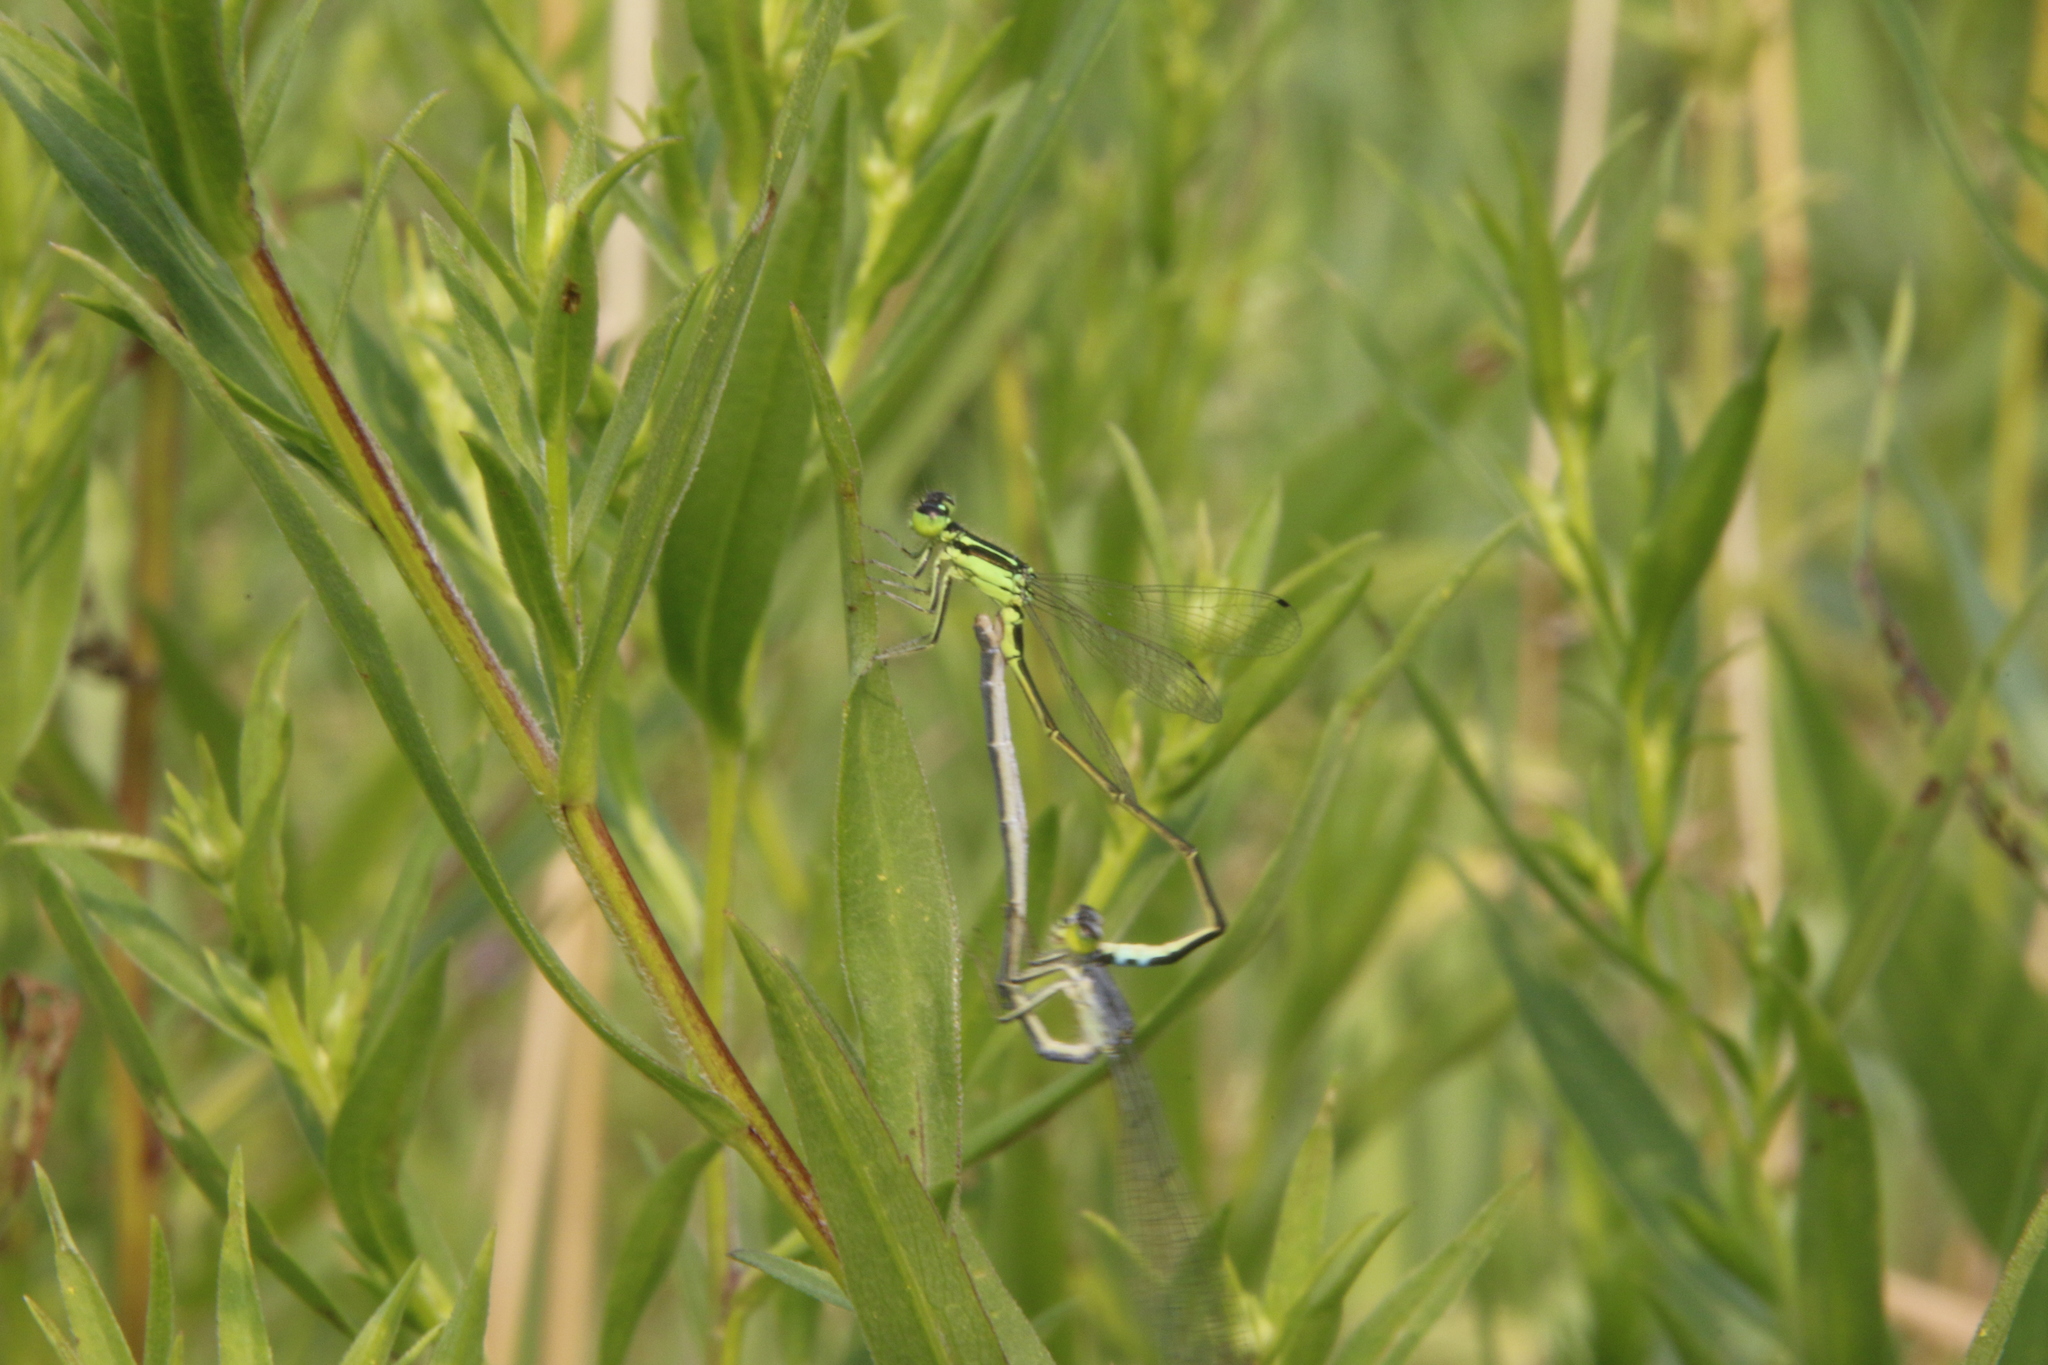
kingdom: Animalia
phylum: Arthropoda
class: Insecta
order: Odonata
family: Coenagrionidae
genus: Ischnura
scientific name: Ischnura verticalis
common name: Eastern forktail
